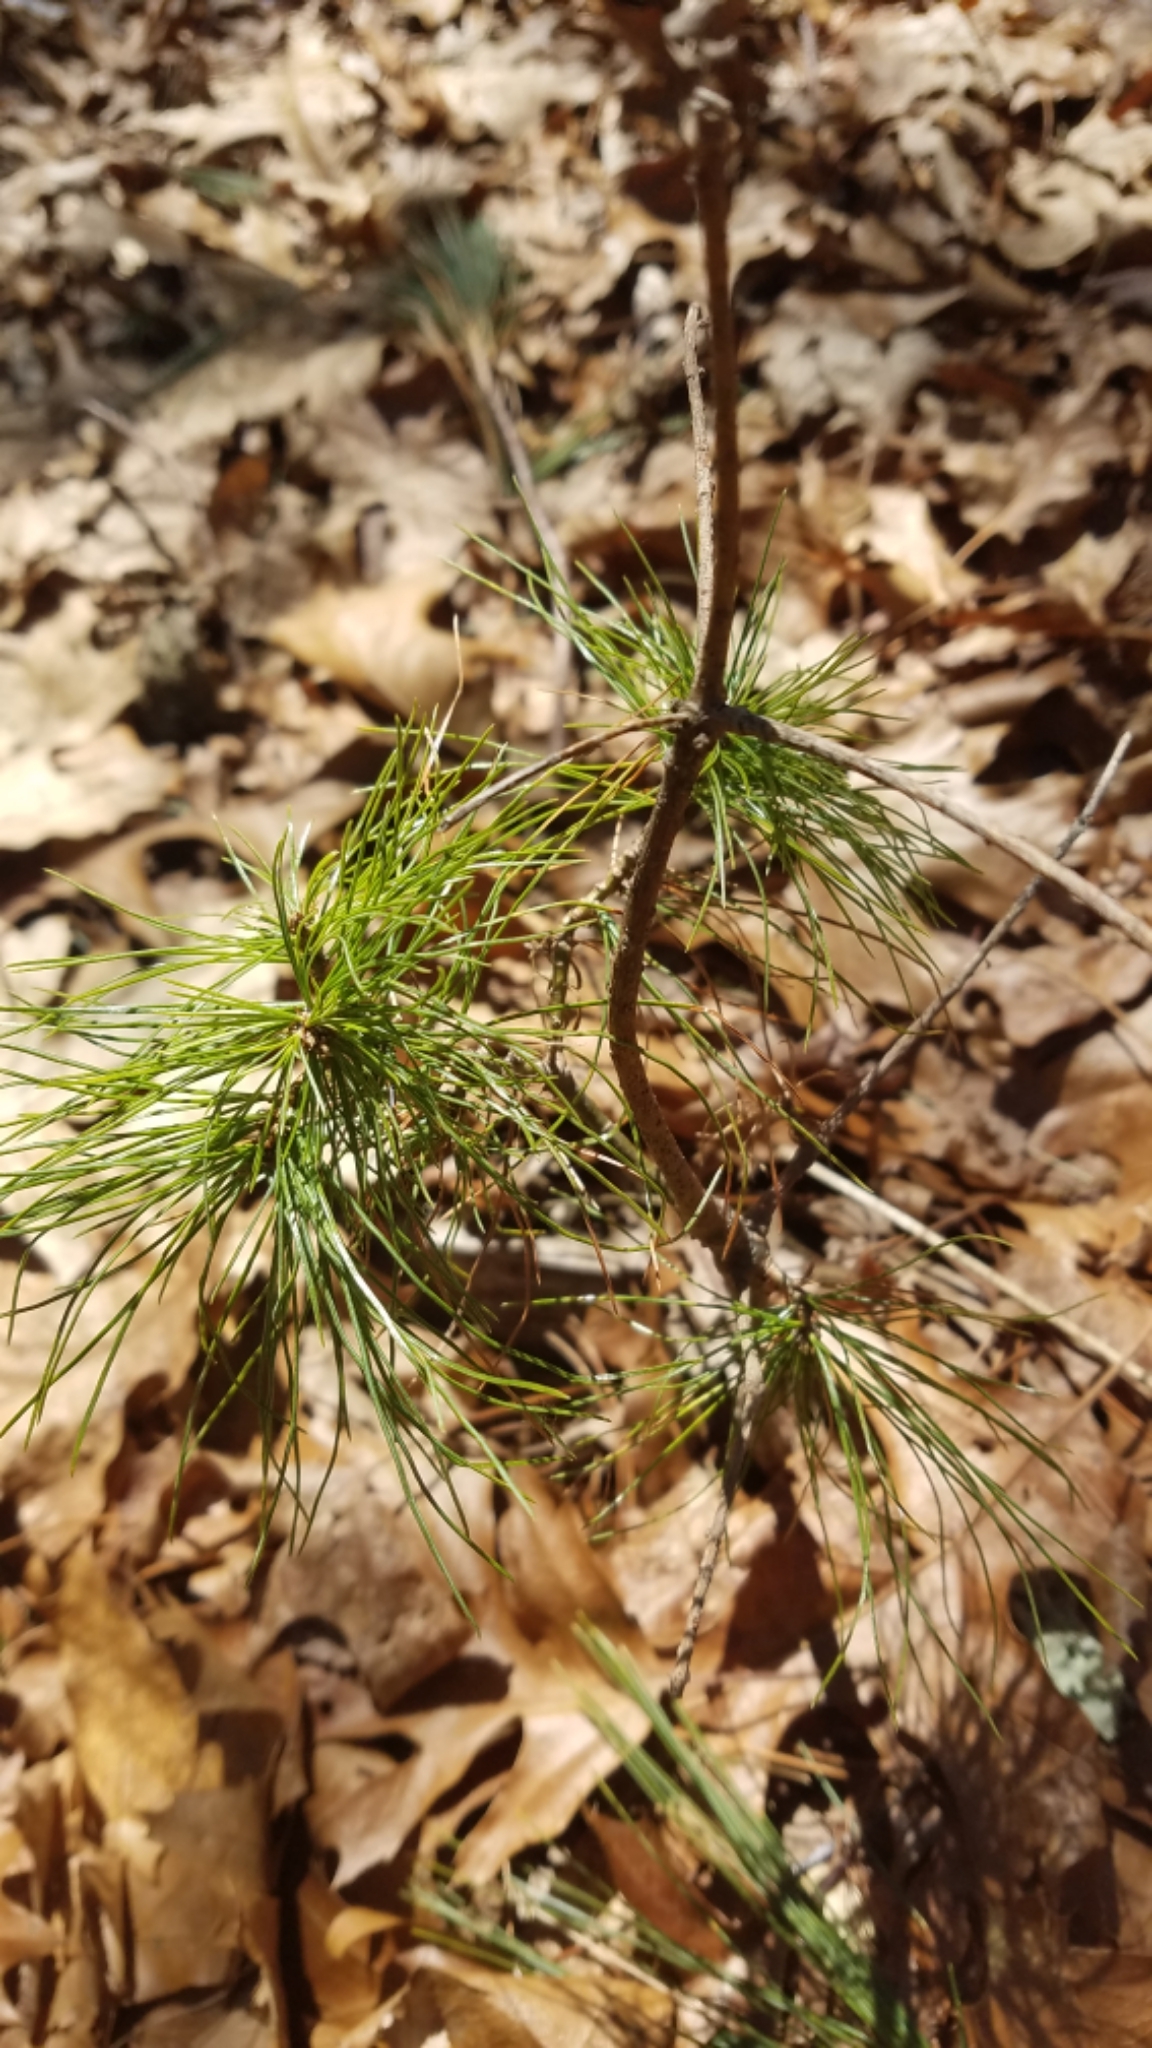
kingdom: Plantae
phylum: Tracheophyta
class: Pinopsida
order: Pinales
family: Pinaceae
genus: Pinus
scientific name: Pinus strobus
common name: Weymouth pine
